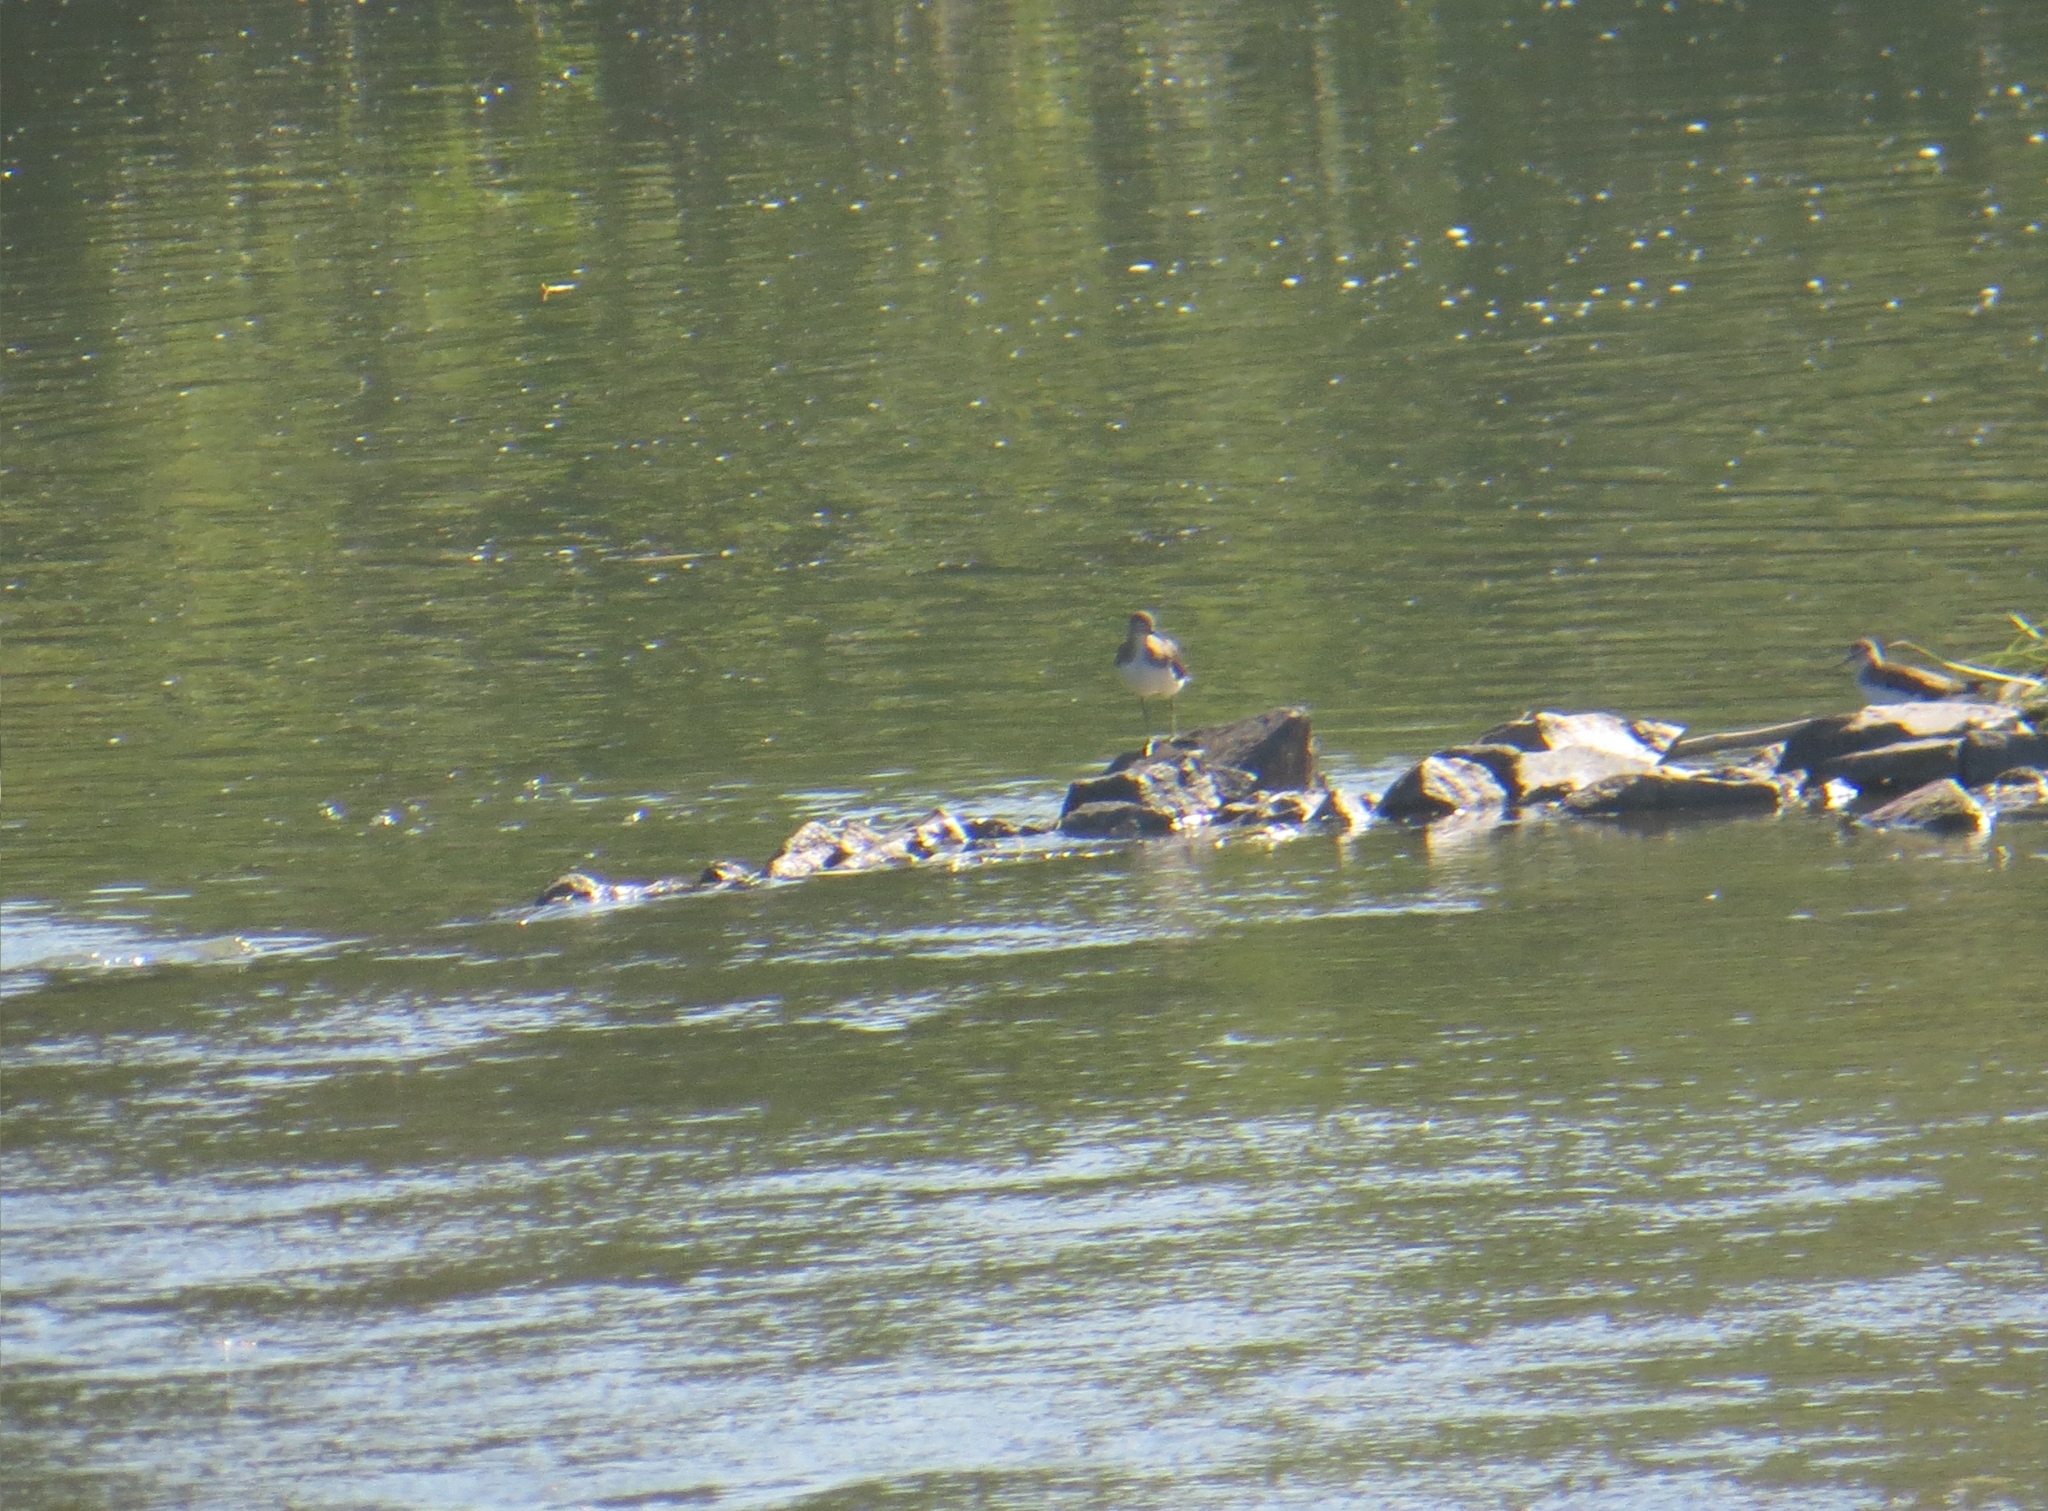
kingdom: Animalia
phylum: Chordata
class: Aves
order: Charadriiformes
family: Scolopacidae
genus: Tringa
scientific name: Tringa ochropus
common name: Green sandpiper
